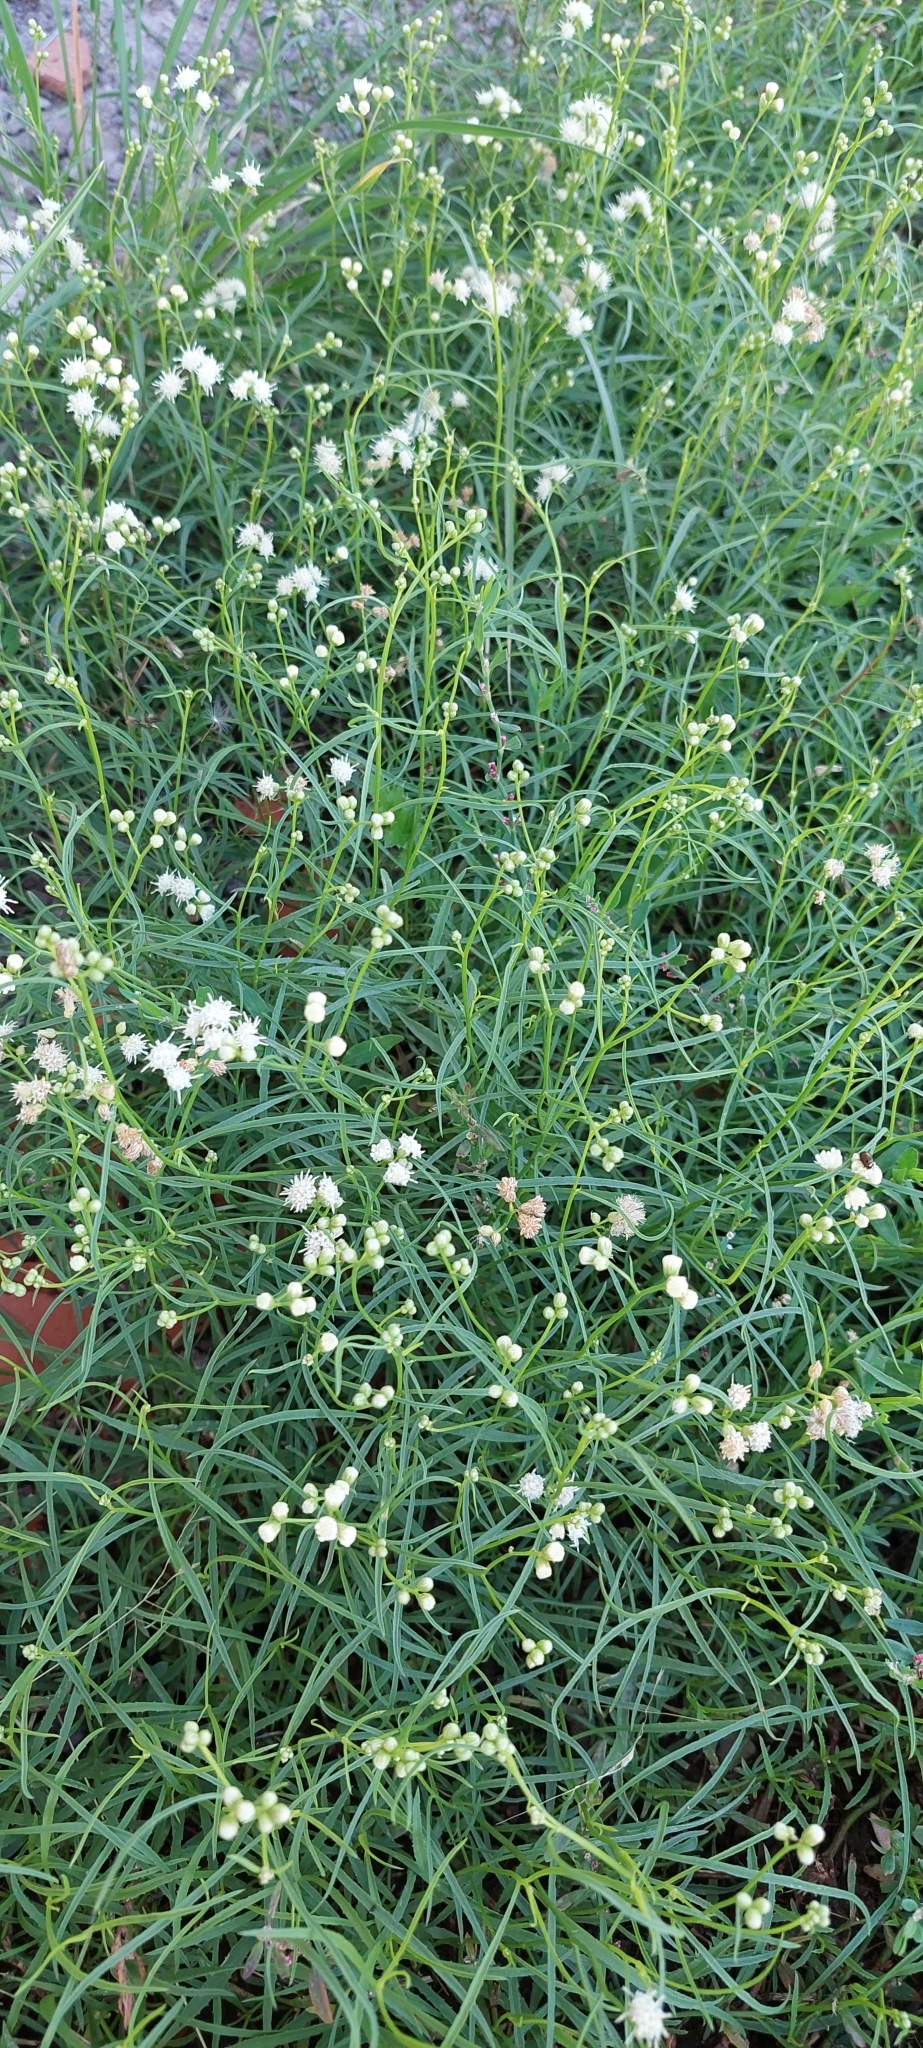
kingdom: Plantae
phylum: Tracheophyta
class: Magnoliopsida
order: Asterales
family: Asteraceae
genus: Baccharis
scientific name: Baccharis stenophylla
